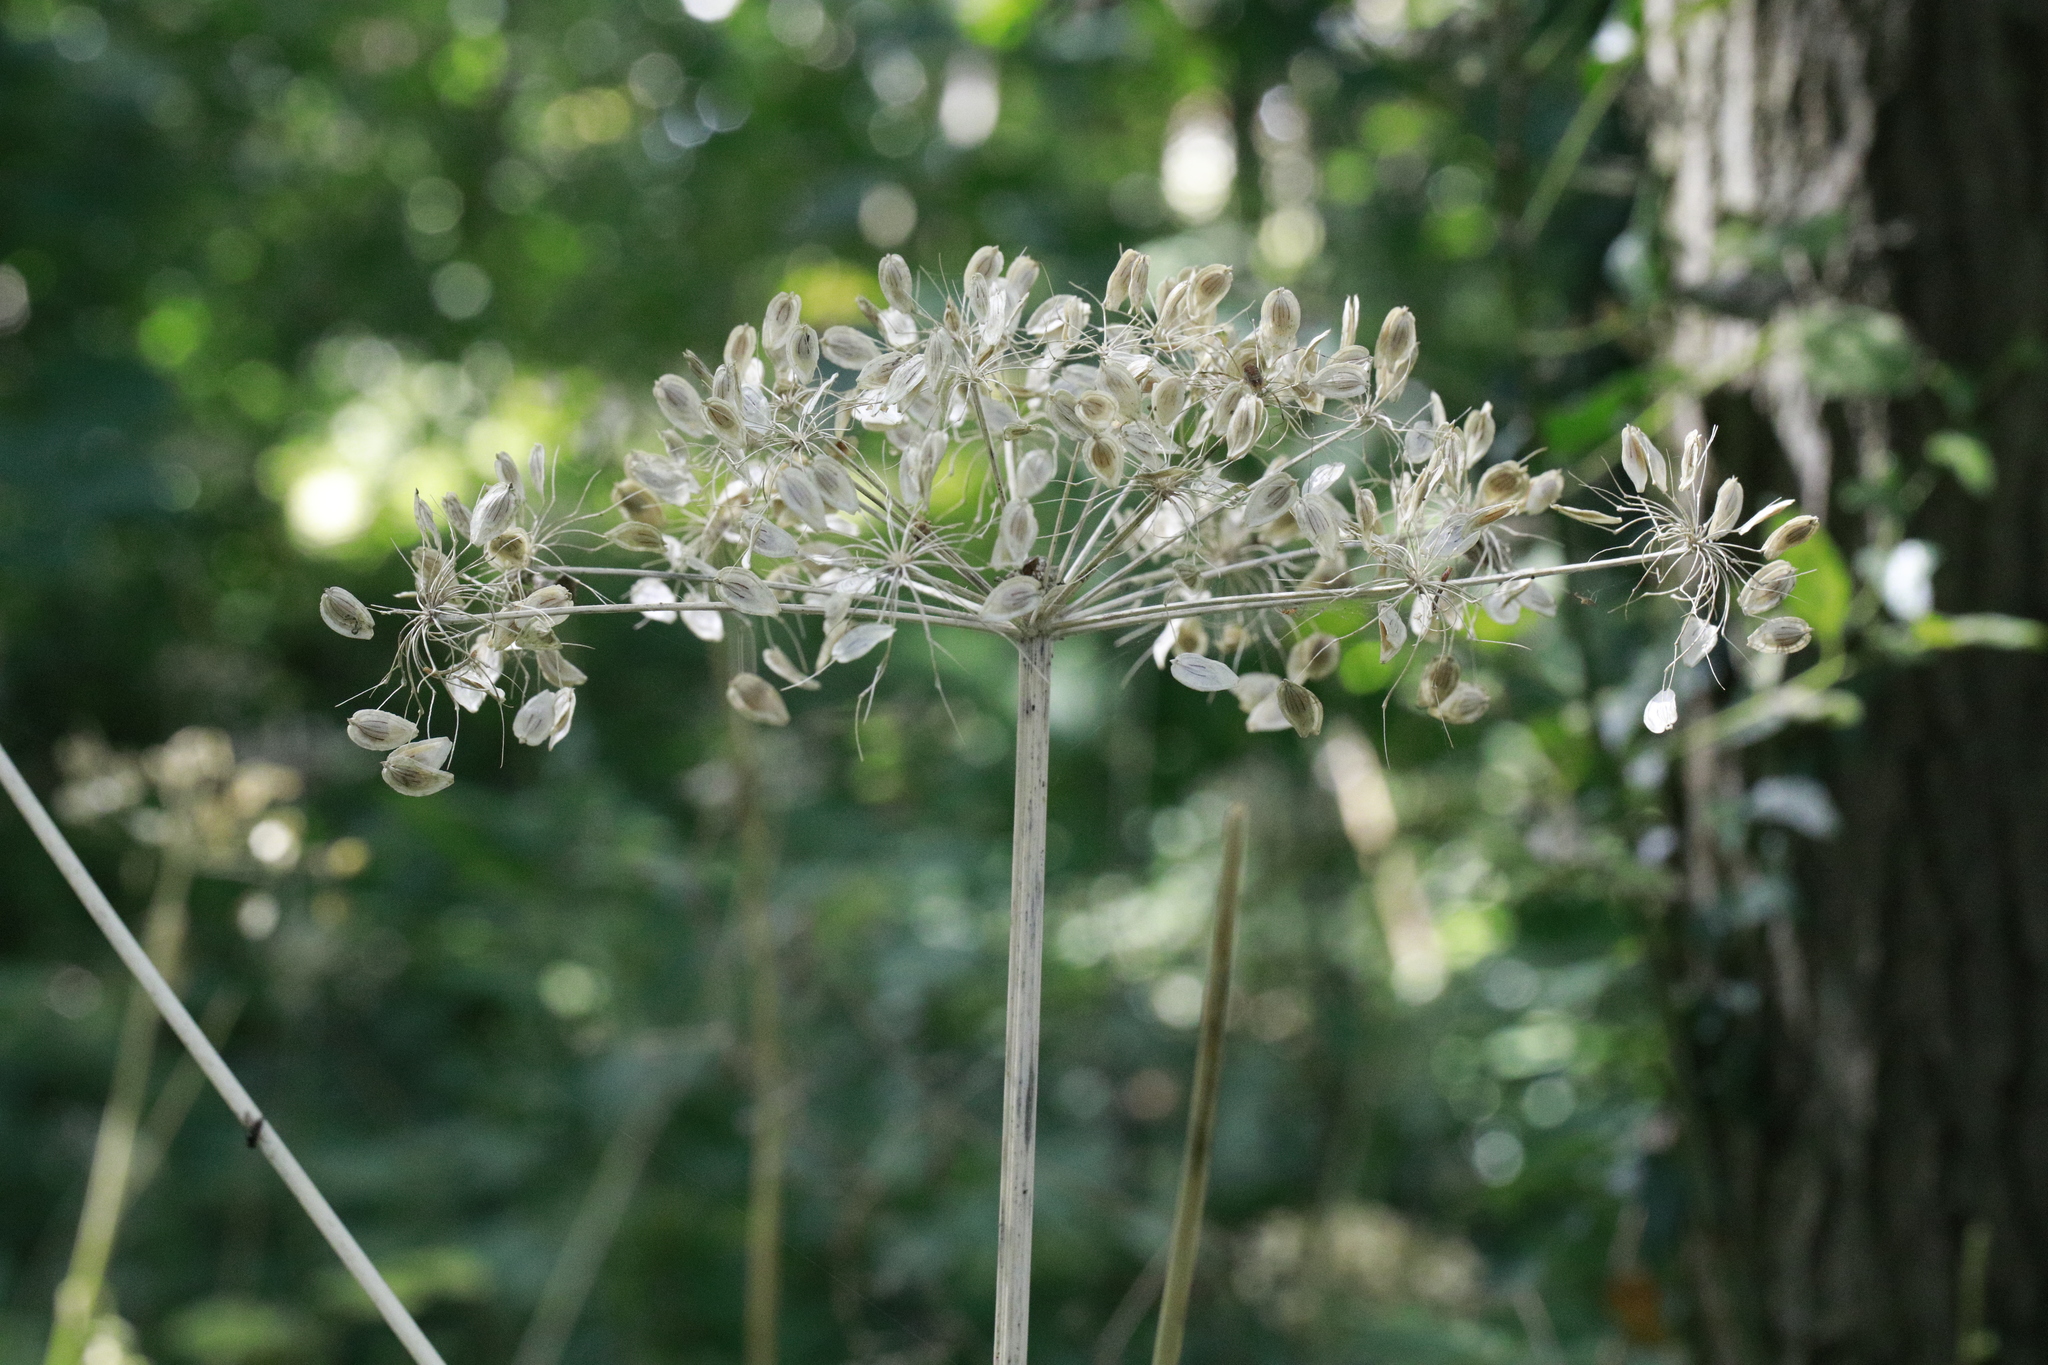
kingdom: Plantae
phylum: Tracheophyta
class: Magnoliopsida
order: Apiales
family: Apiaceae
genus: Heracleum
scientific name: Heracleum sphondylium
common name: Hogweed
